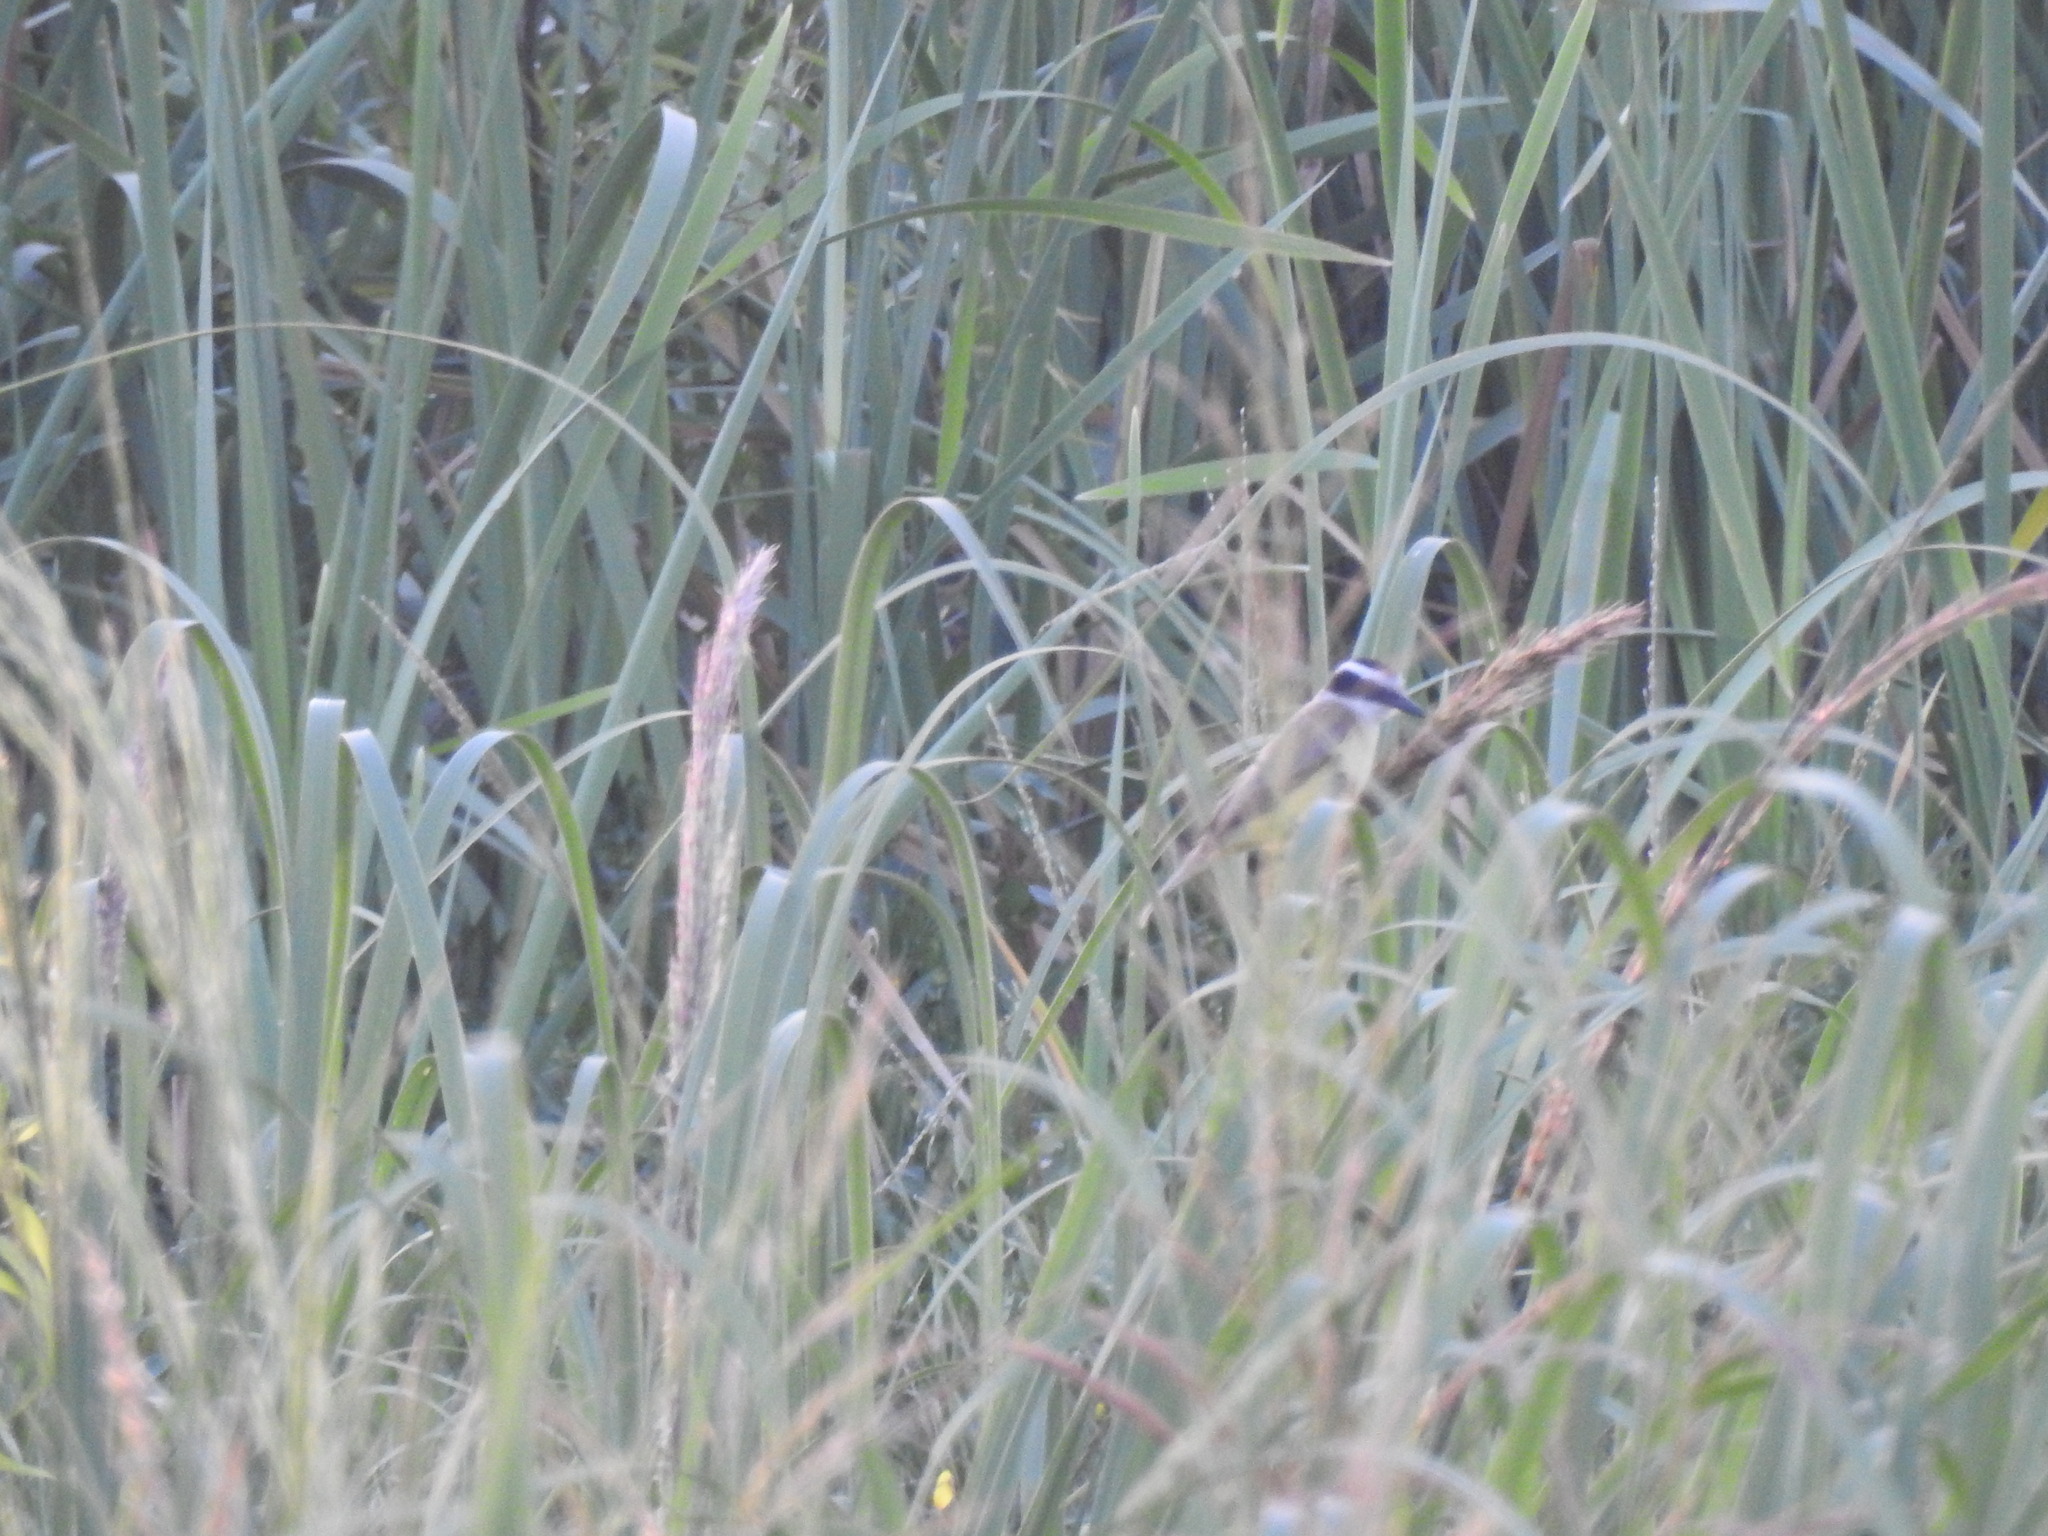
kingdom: Animalia
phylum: Chordata
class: Aves
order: Passeriformes
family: Tyrannidae
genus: Pitangus
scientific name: Pitangus sulphuratus
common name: Great kiskadee
